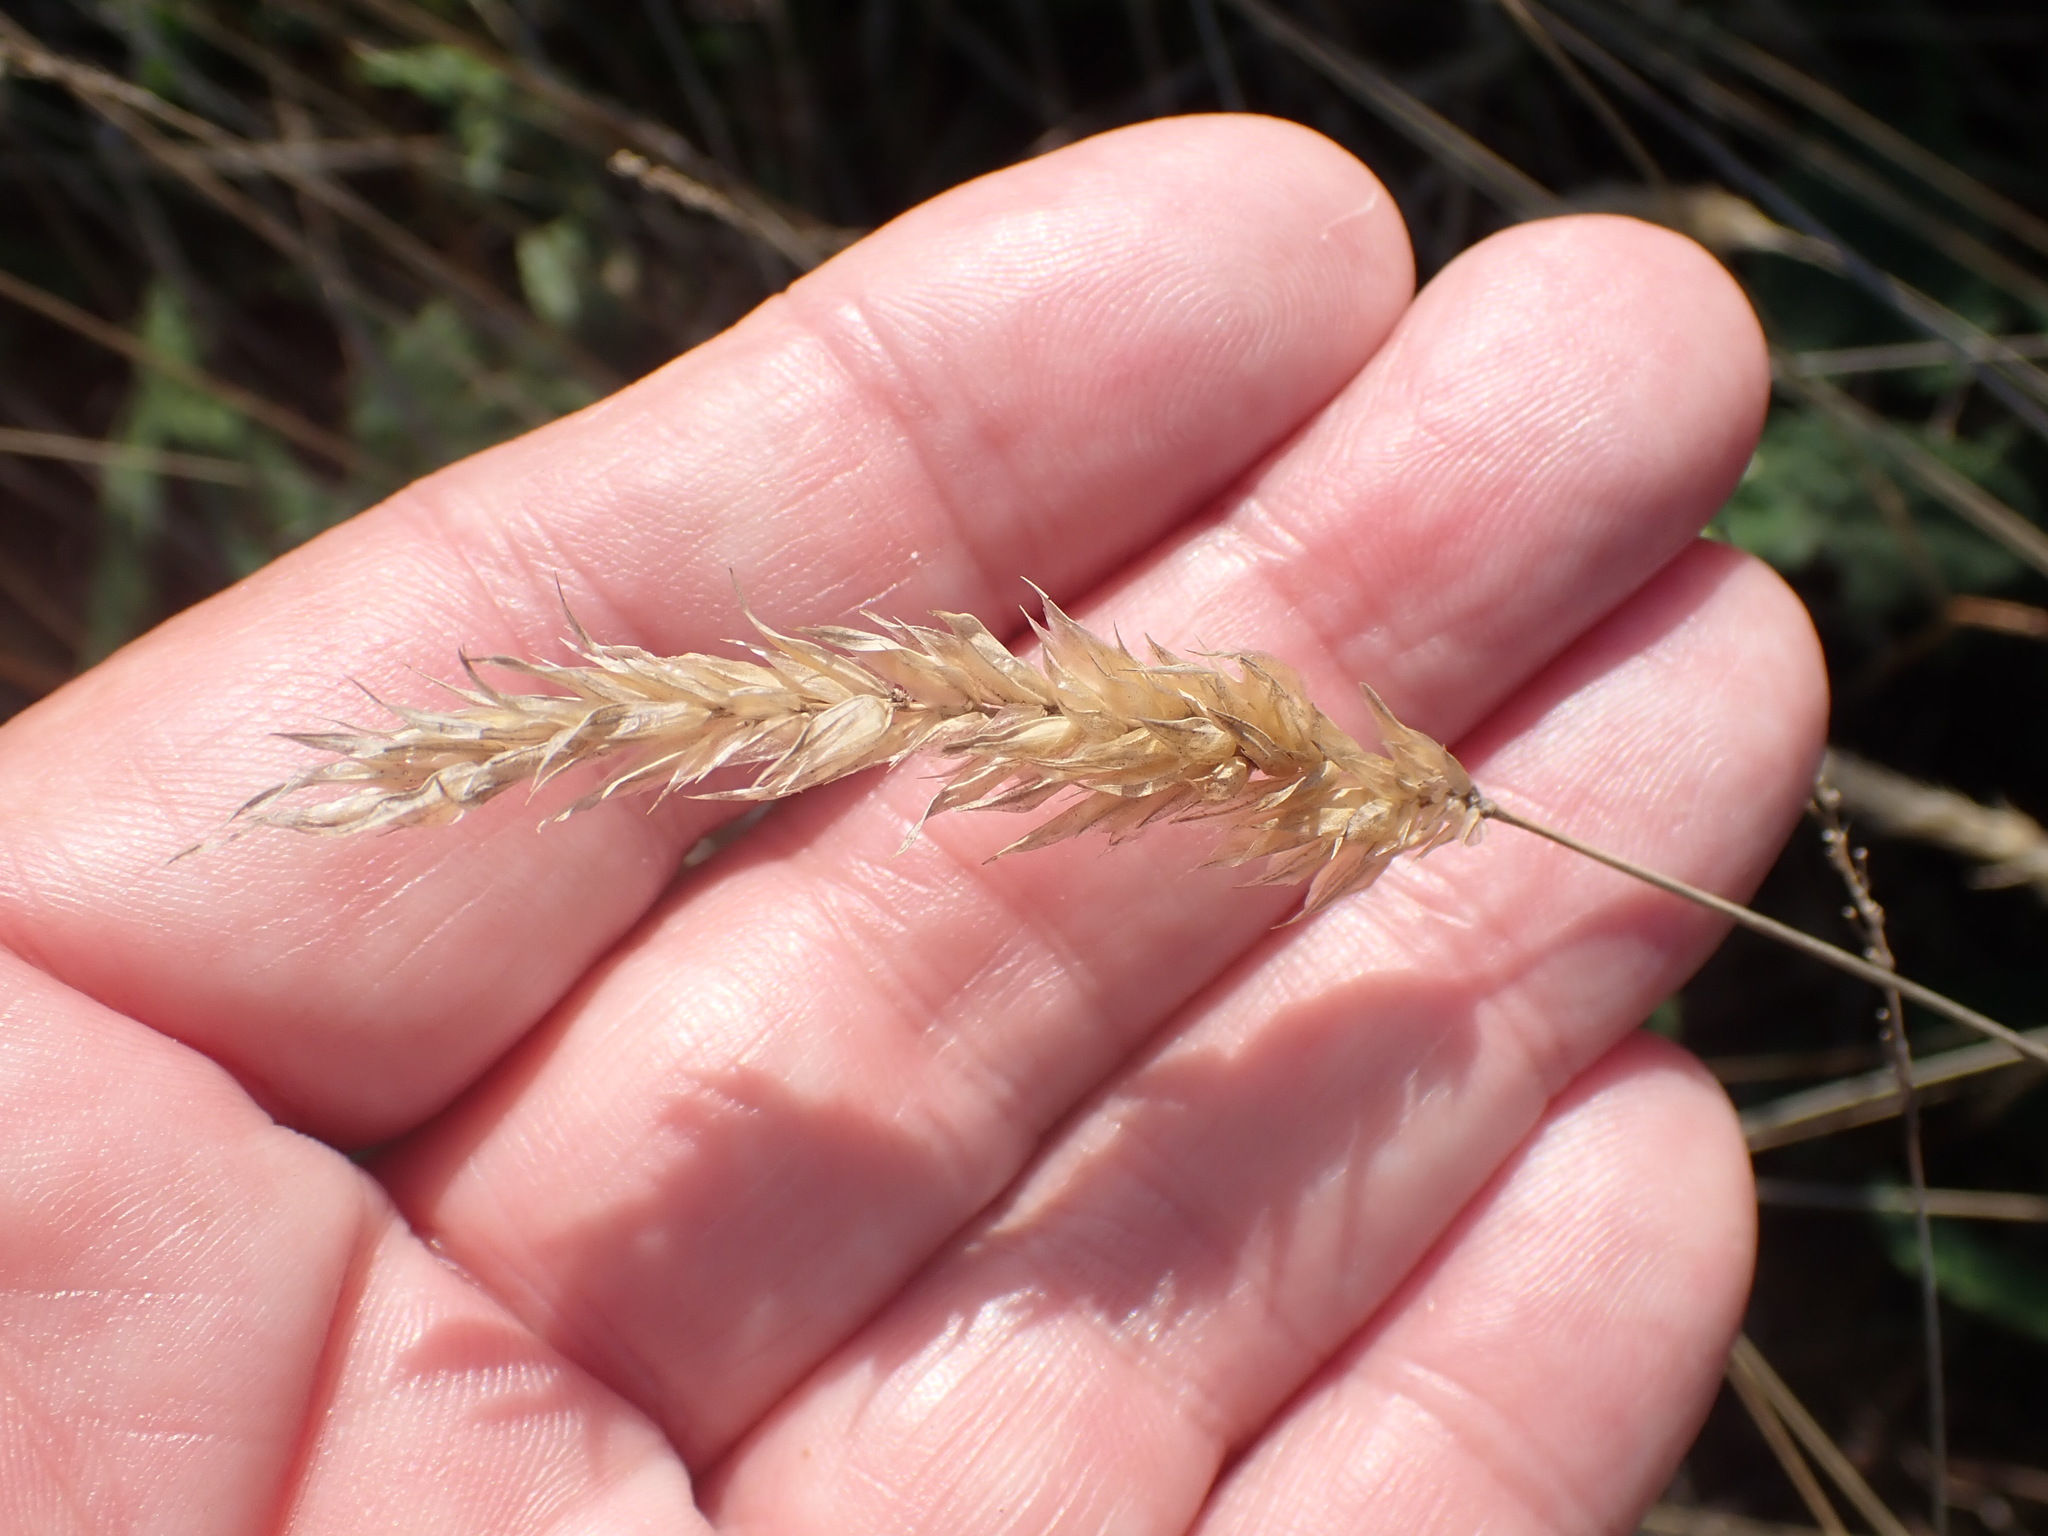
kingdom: Plantae
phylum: Tracheophyta
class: Liliopsida
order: Poales
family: Poaceae
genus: Anthoxanthum
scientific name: Anthoxanthum odoratum
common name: Sweet vernalgrass
